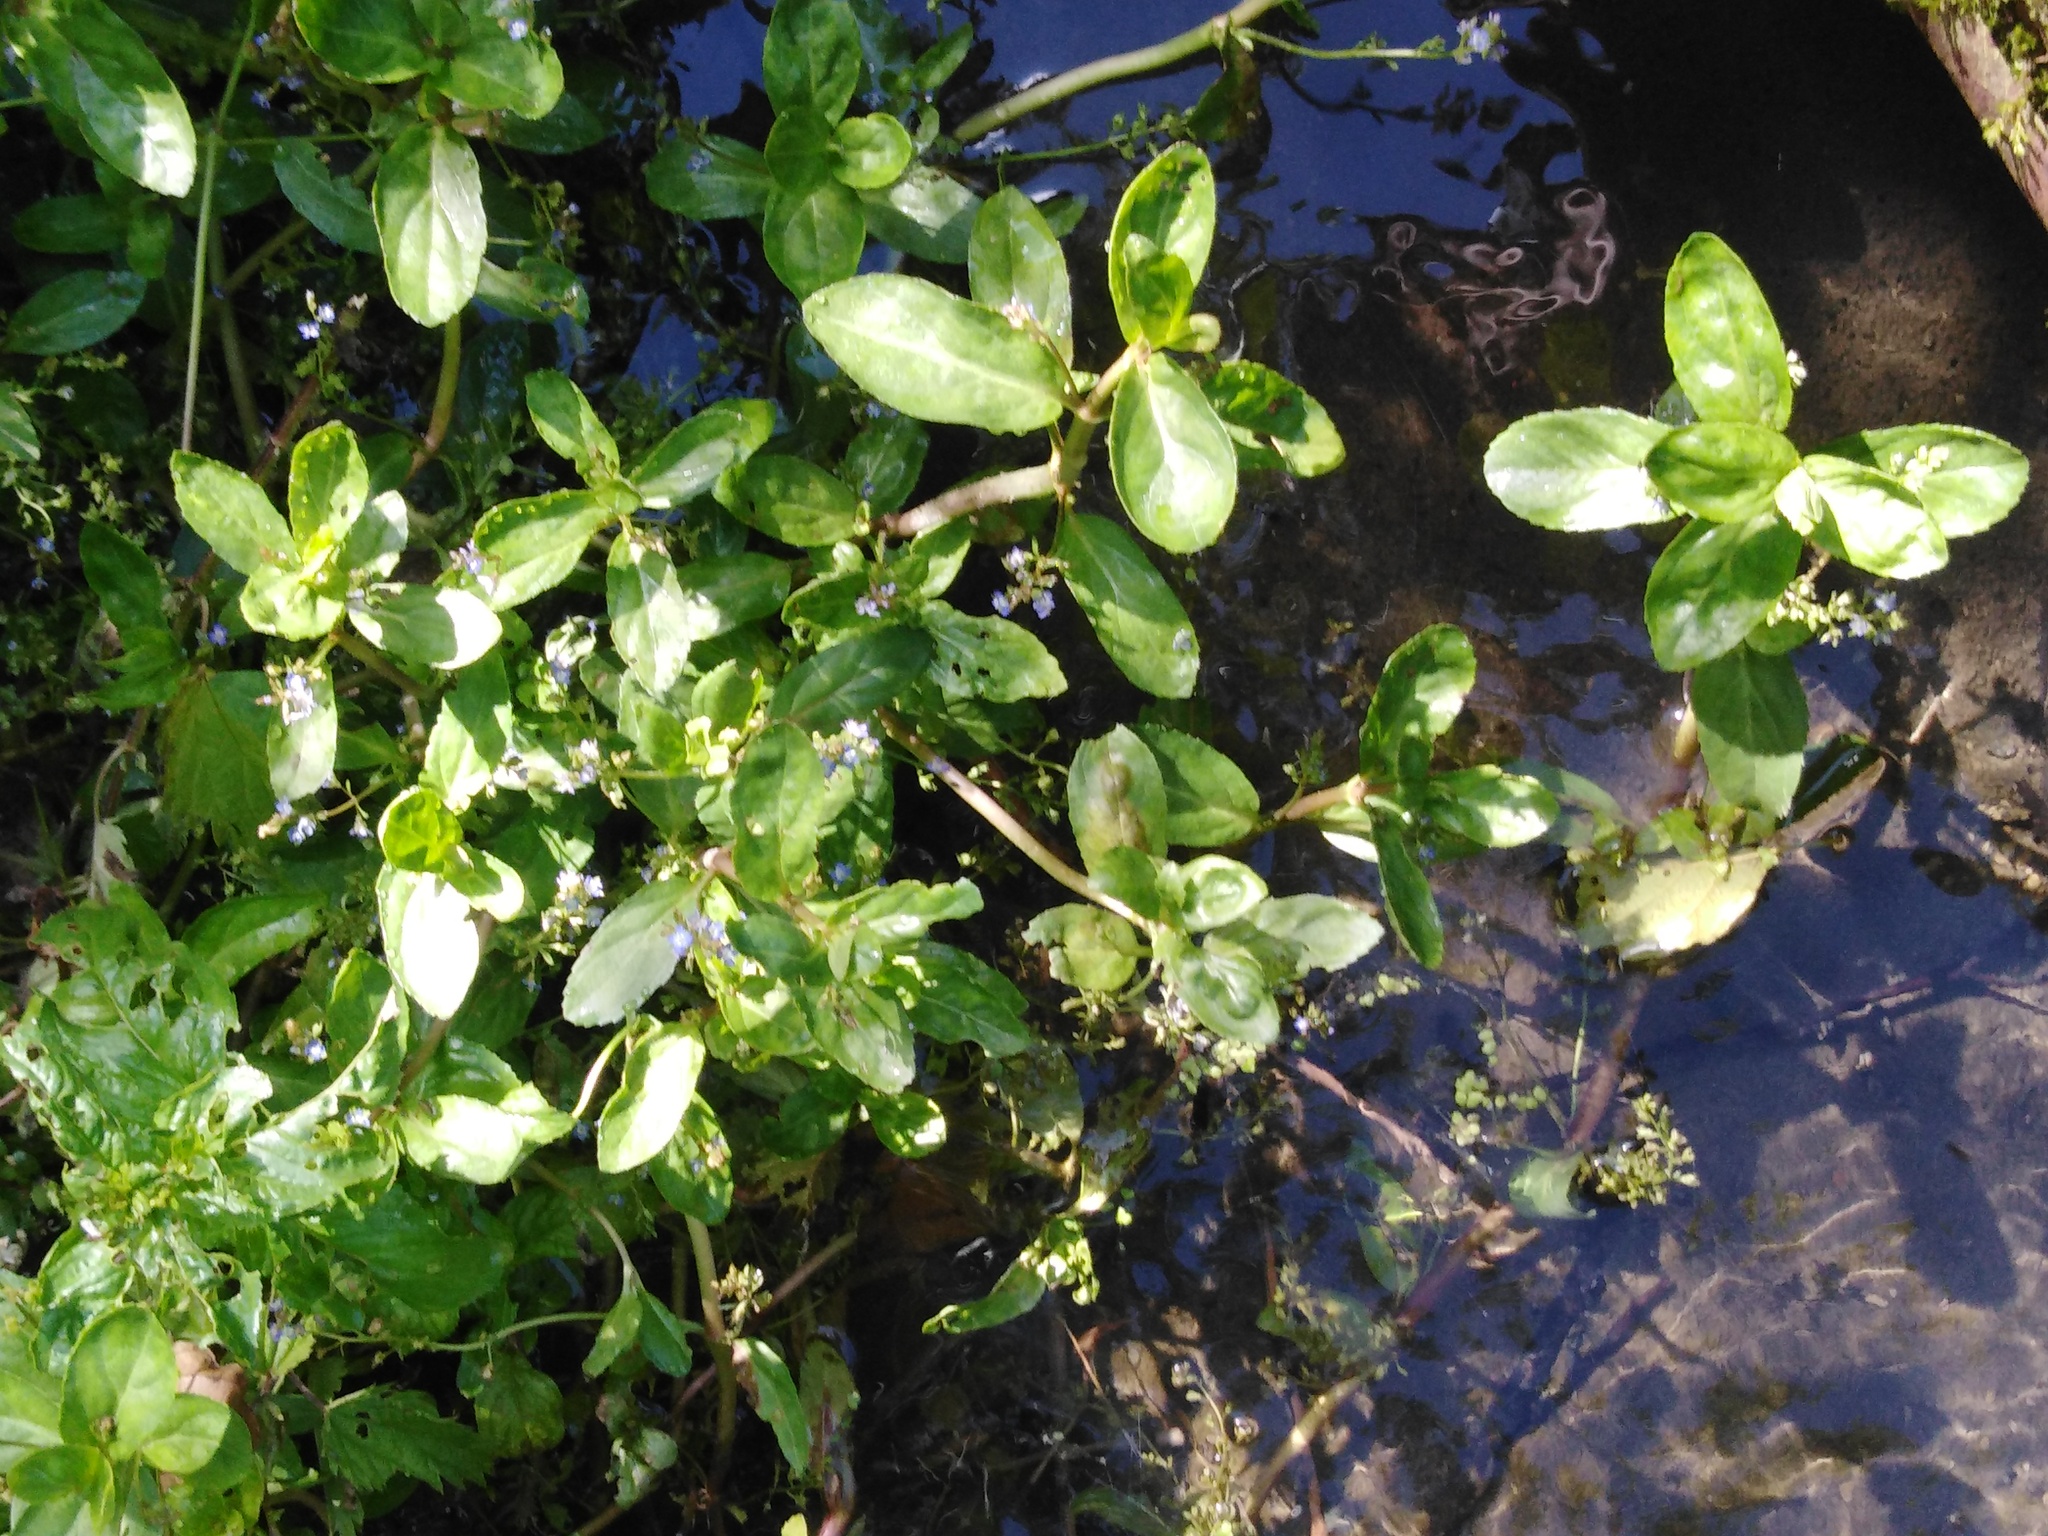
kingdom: Plantae
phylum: Tracheophyta
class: Magnoliopsida
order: Lamiales
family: Plantaginaceae
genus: Veronica
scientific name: Veronica beccabunga
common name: Brooklime
